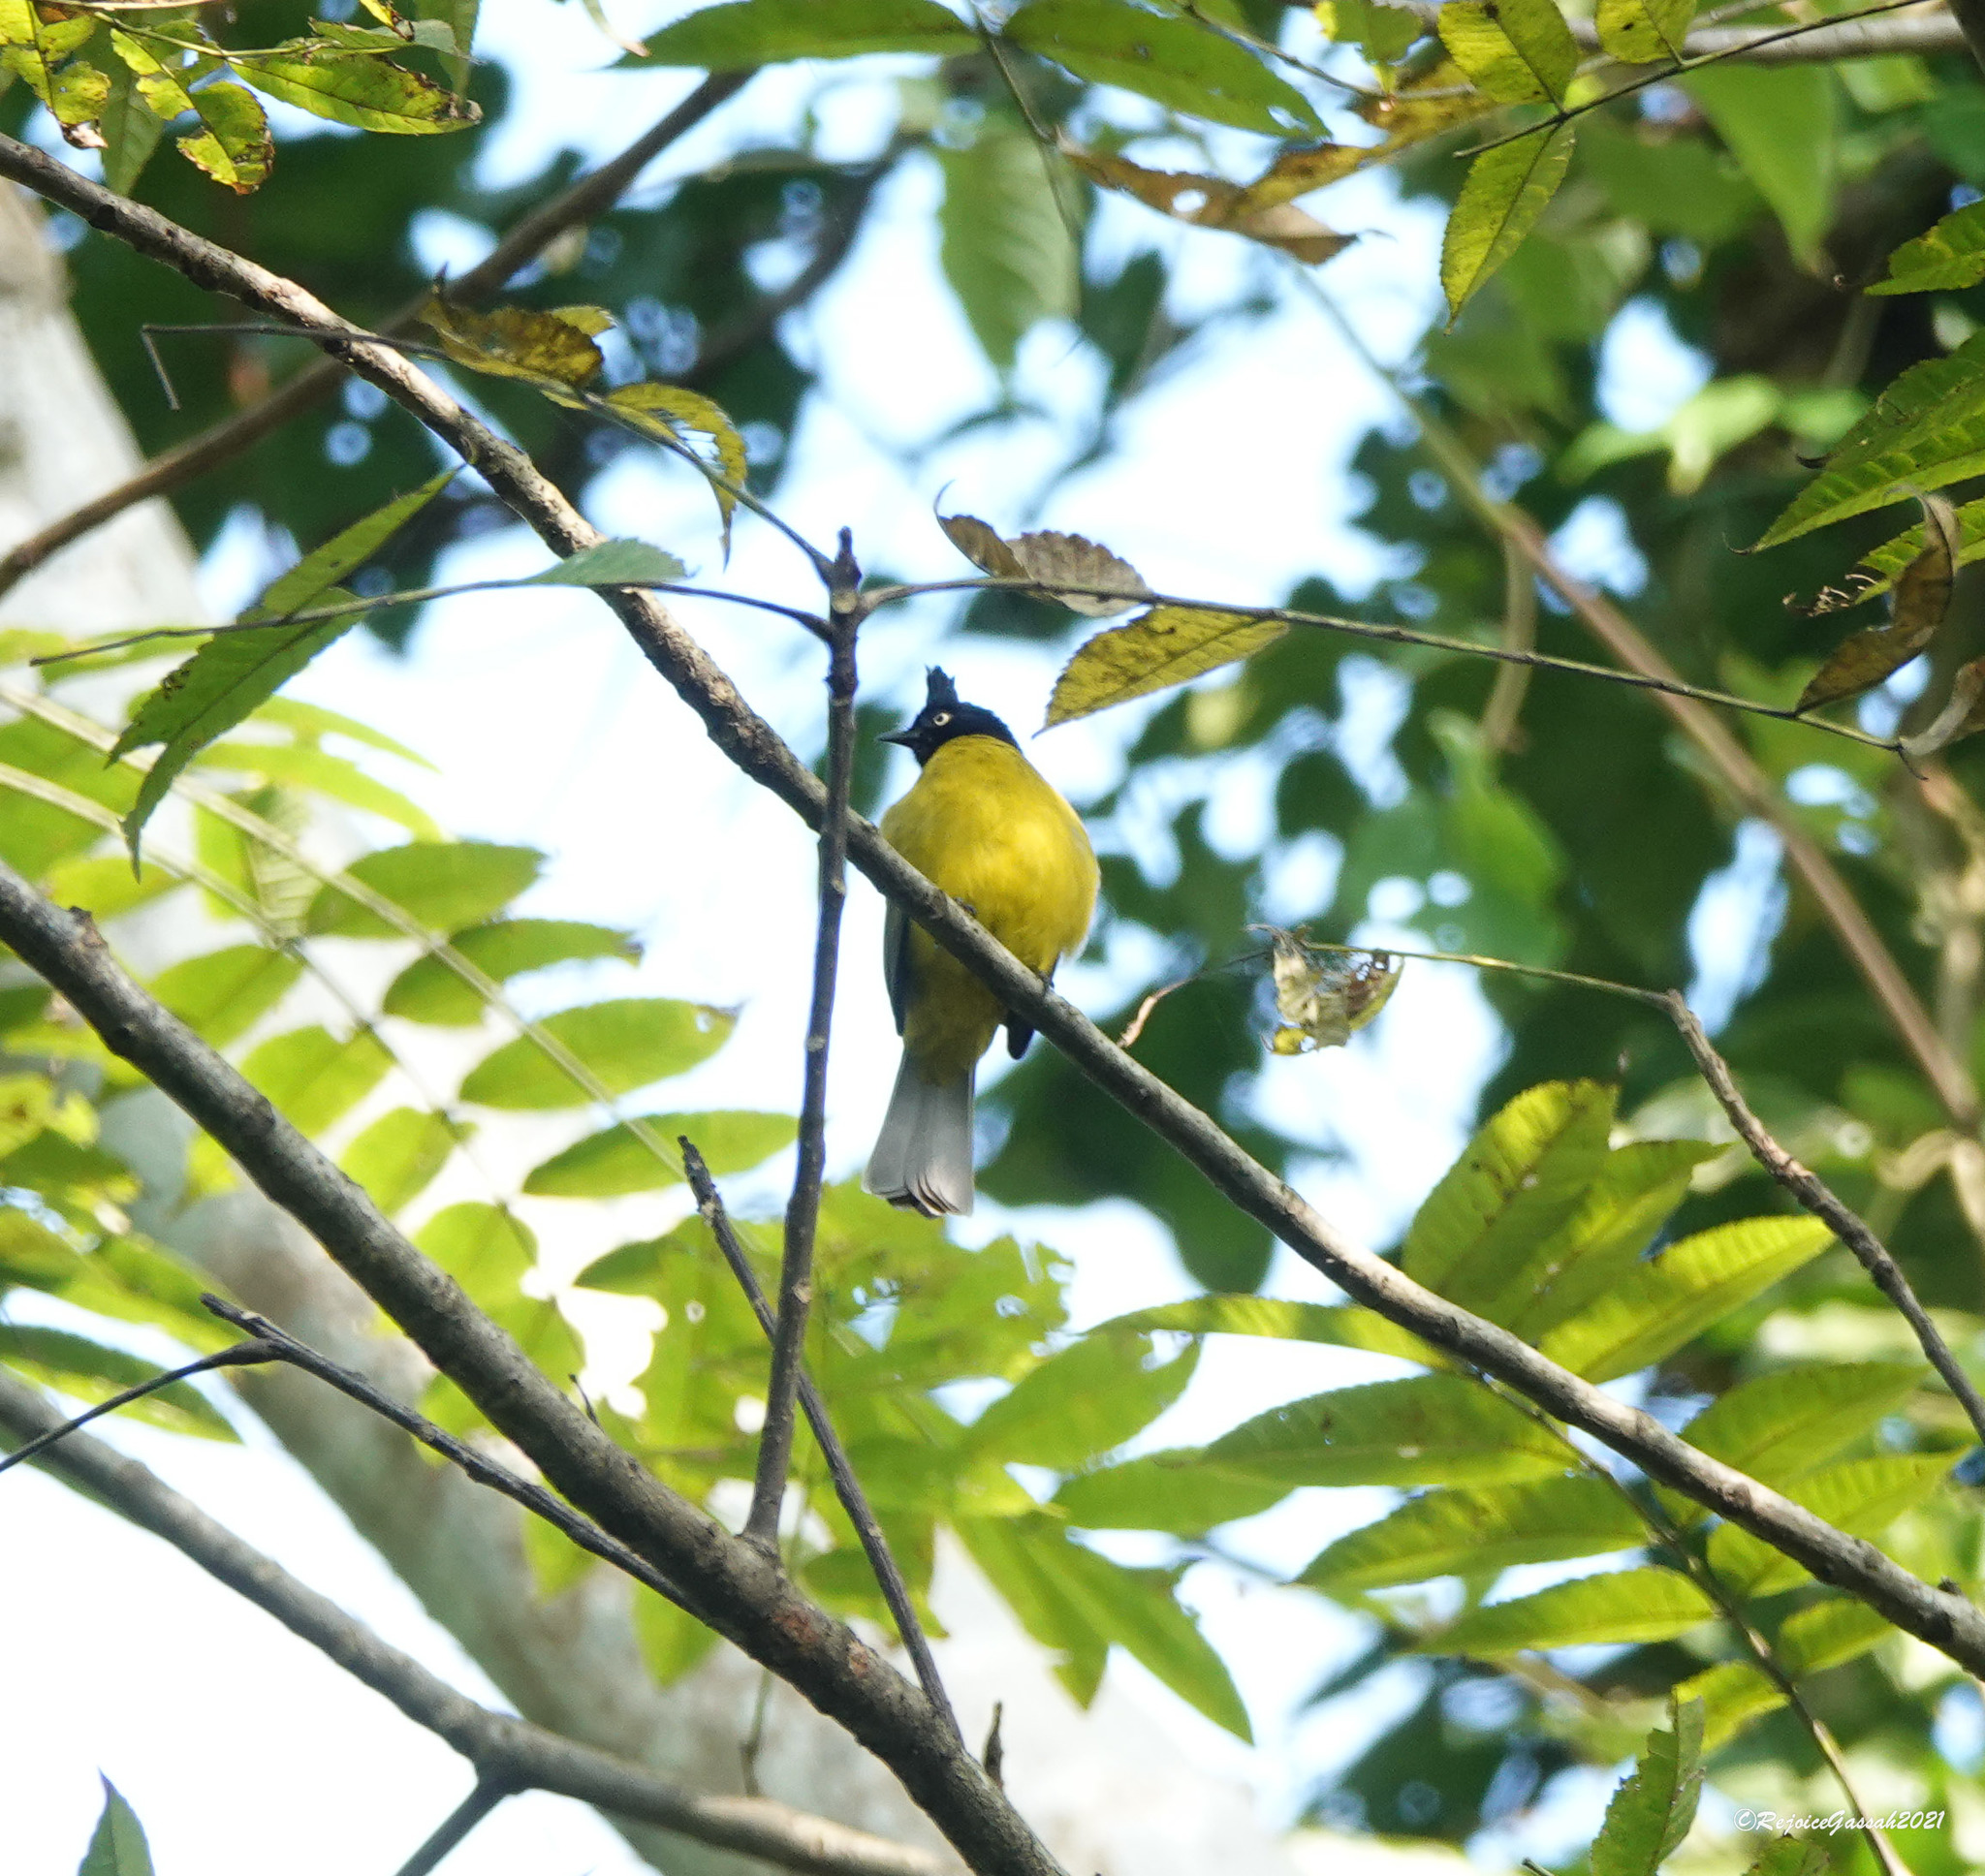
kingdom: Animalia
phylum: Chordata
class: Aves
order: Passeriformes
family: Pycnonotidae
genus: Pycnonotus
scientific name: Pycnonotus flaviventris
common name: Black-crested bulbul
